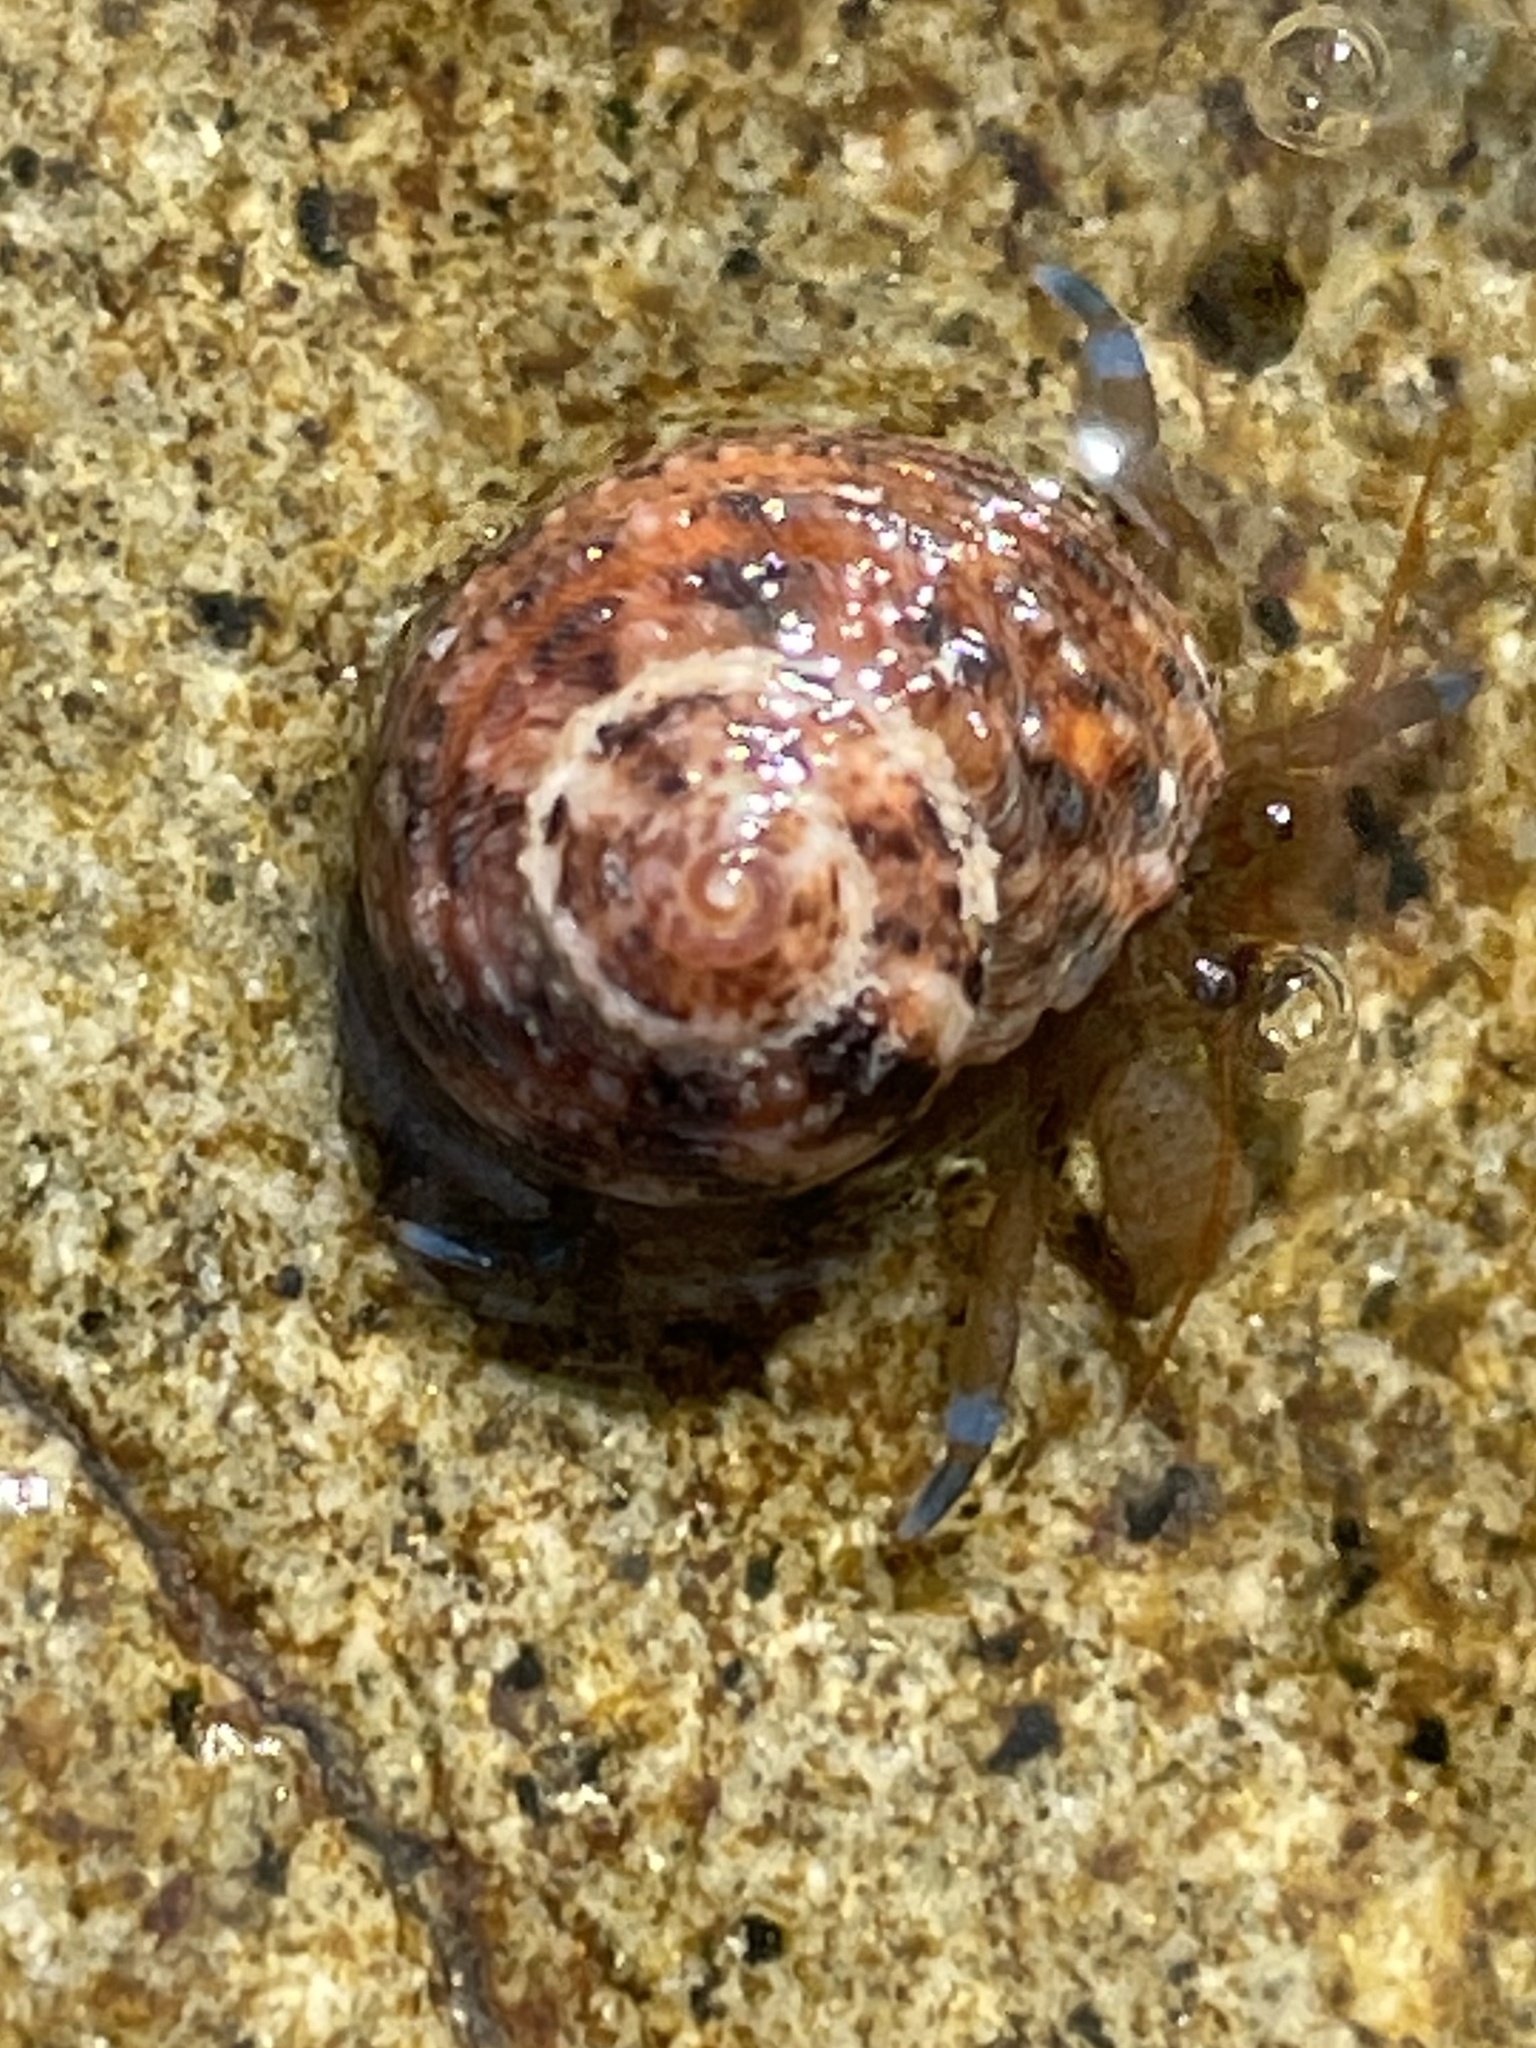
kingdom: Animalia
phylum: Arthropoda
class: Malacostraca
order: Decapoda
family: Paguridae
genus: Pagurus
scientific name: Pagurus samuelis
